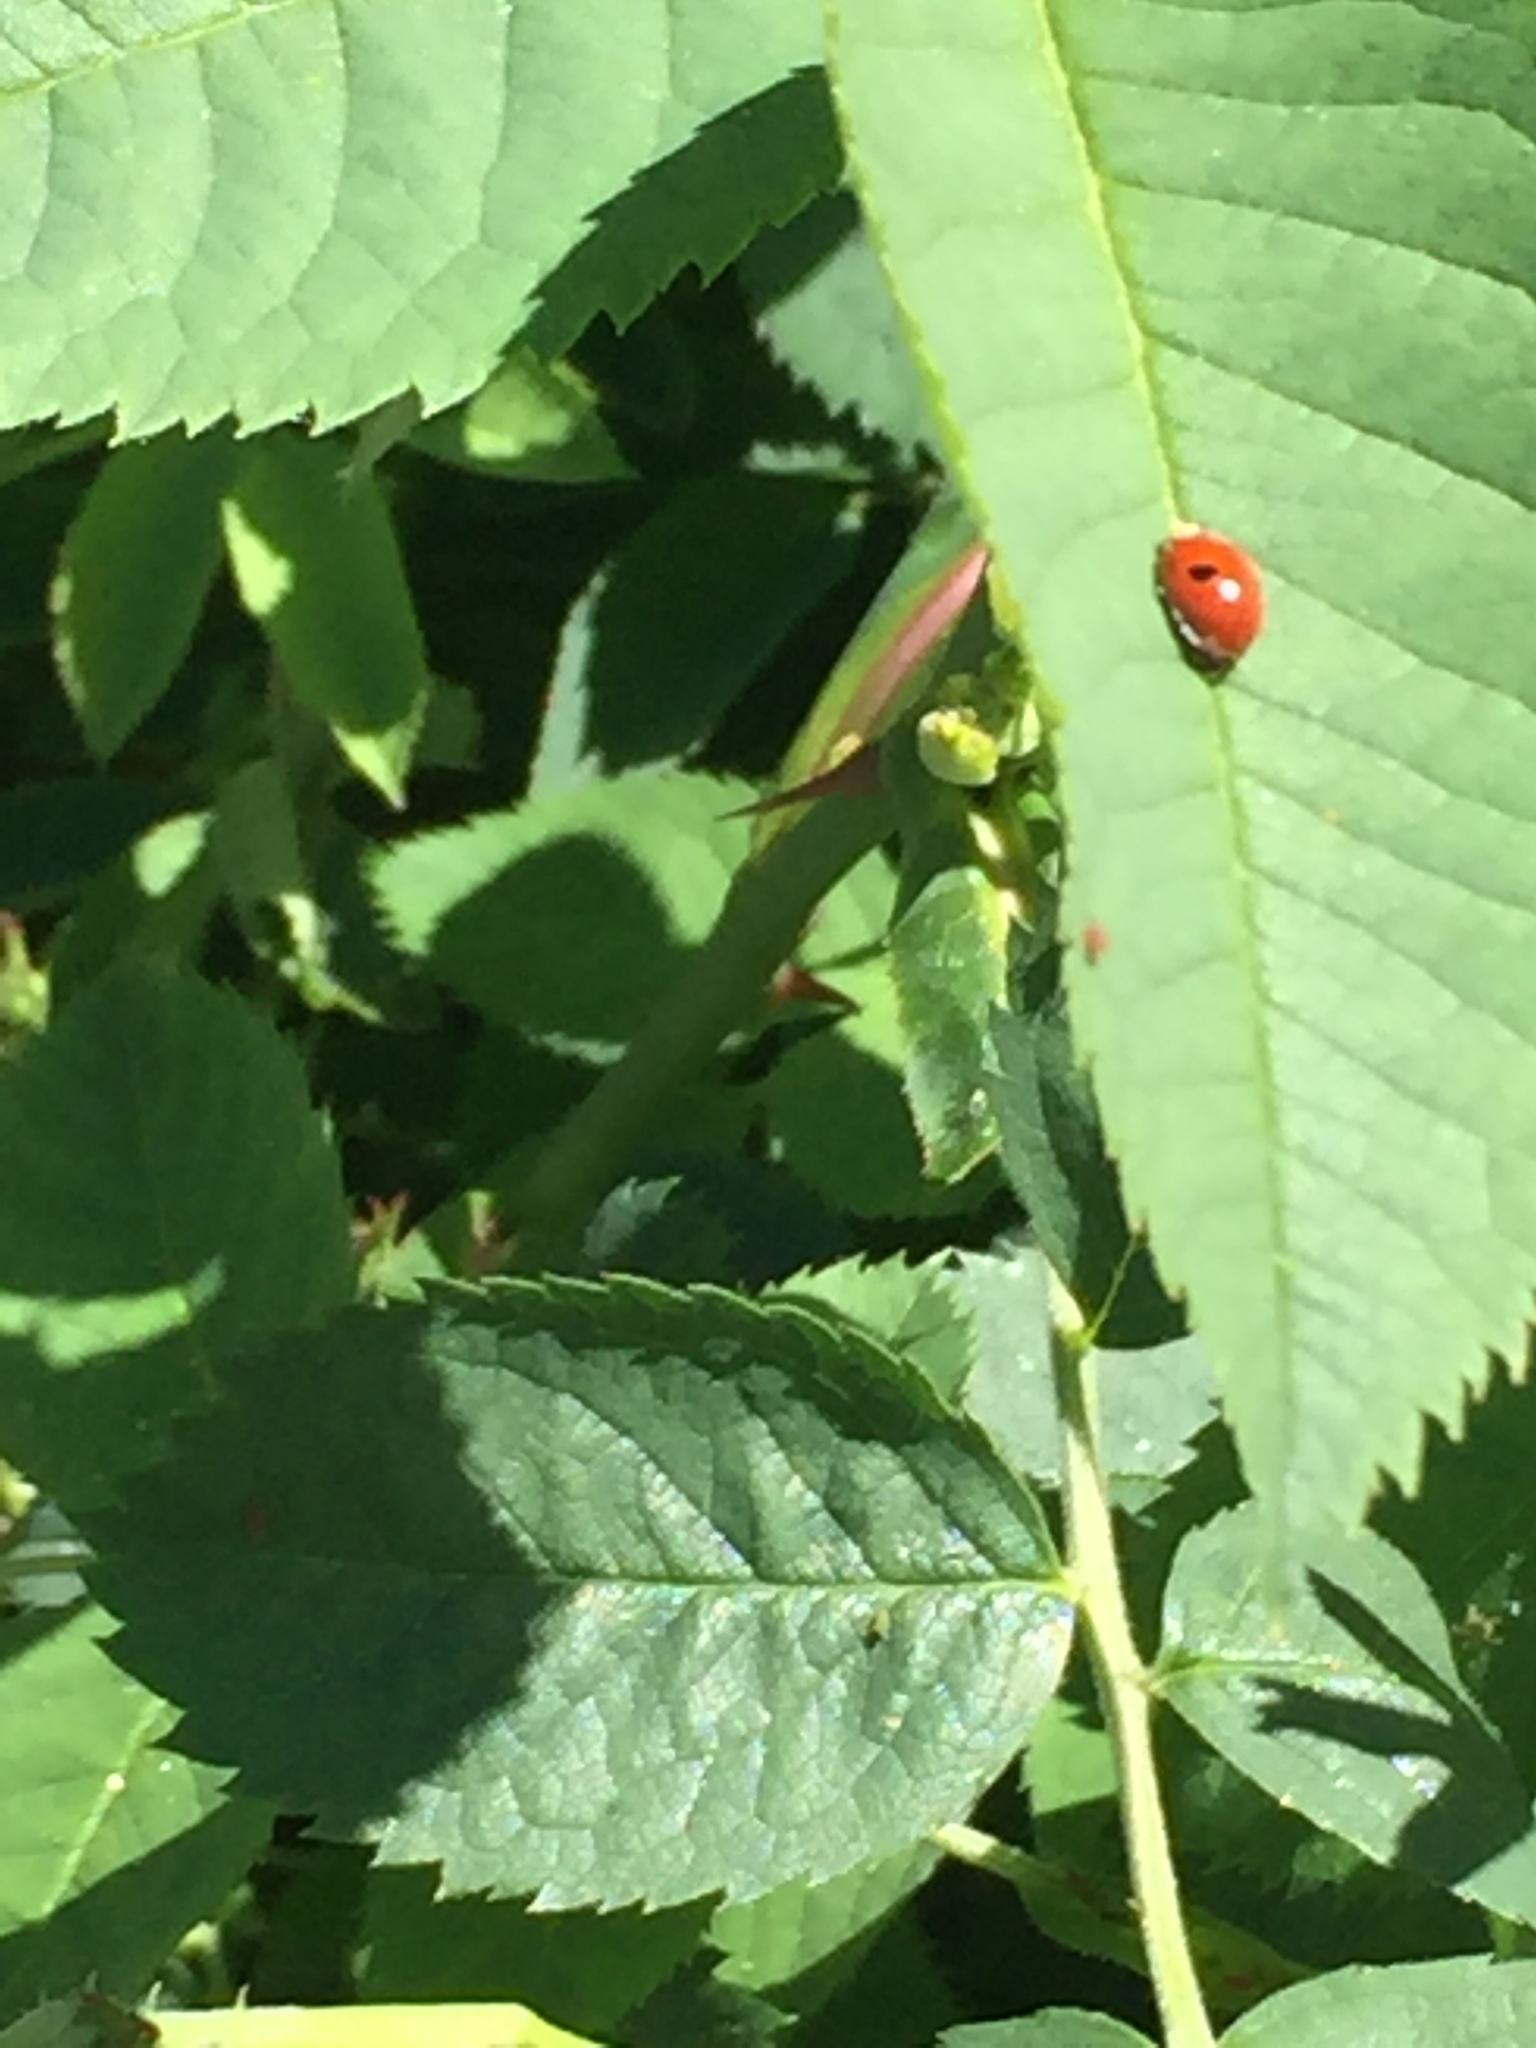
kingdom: Animalia
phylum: Arthropoda
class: Insecta
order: Coleoptera
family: Coccinellidae
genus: Adalia
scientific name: Adalia bipunctata
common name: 2-spot ladybird
